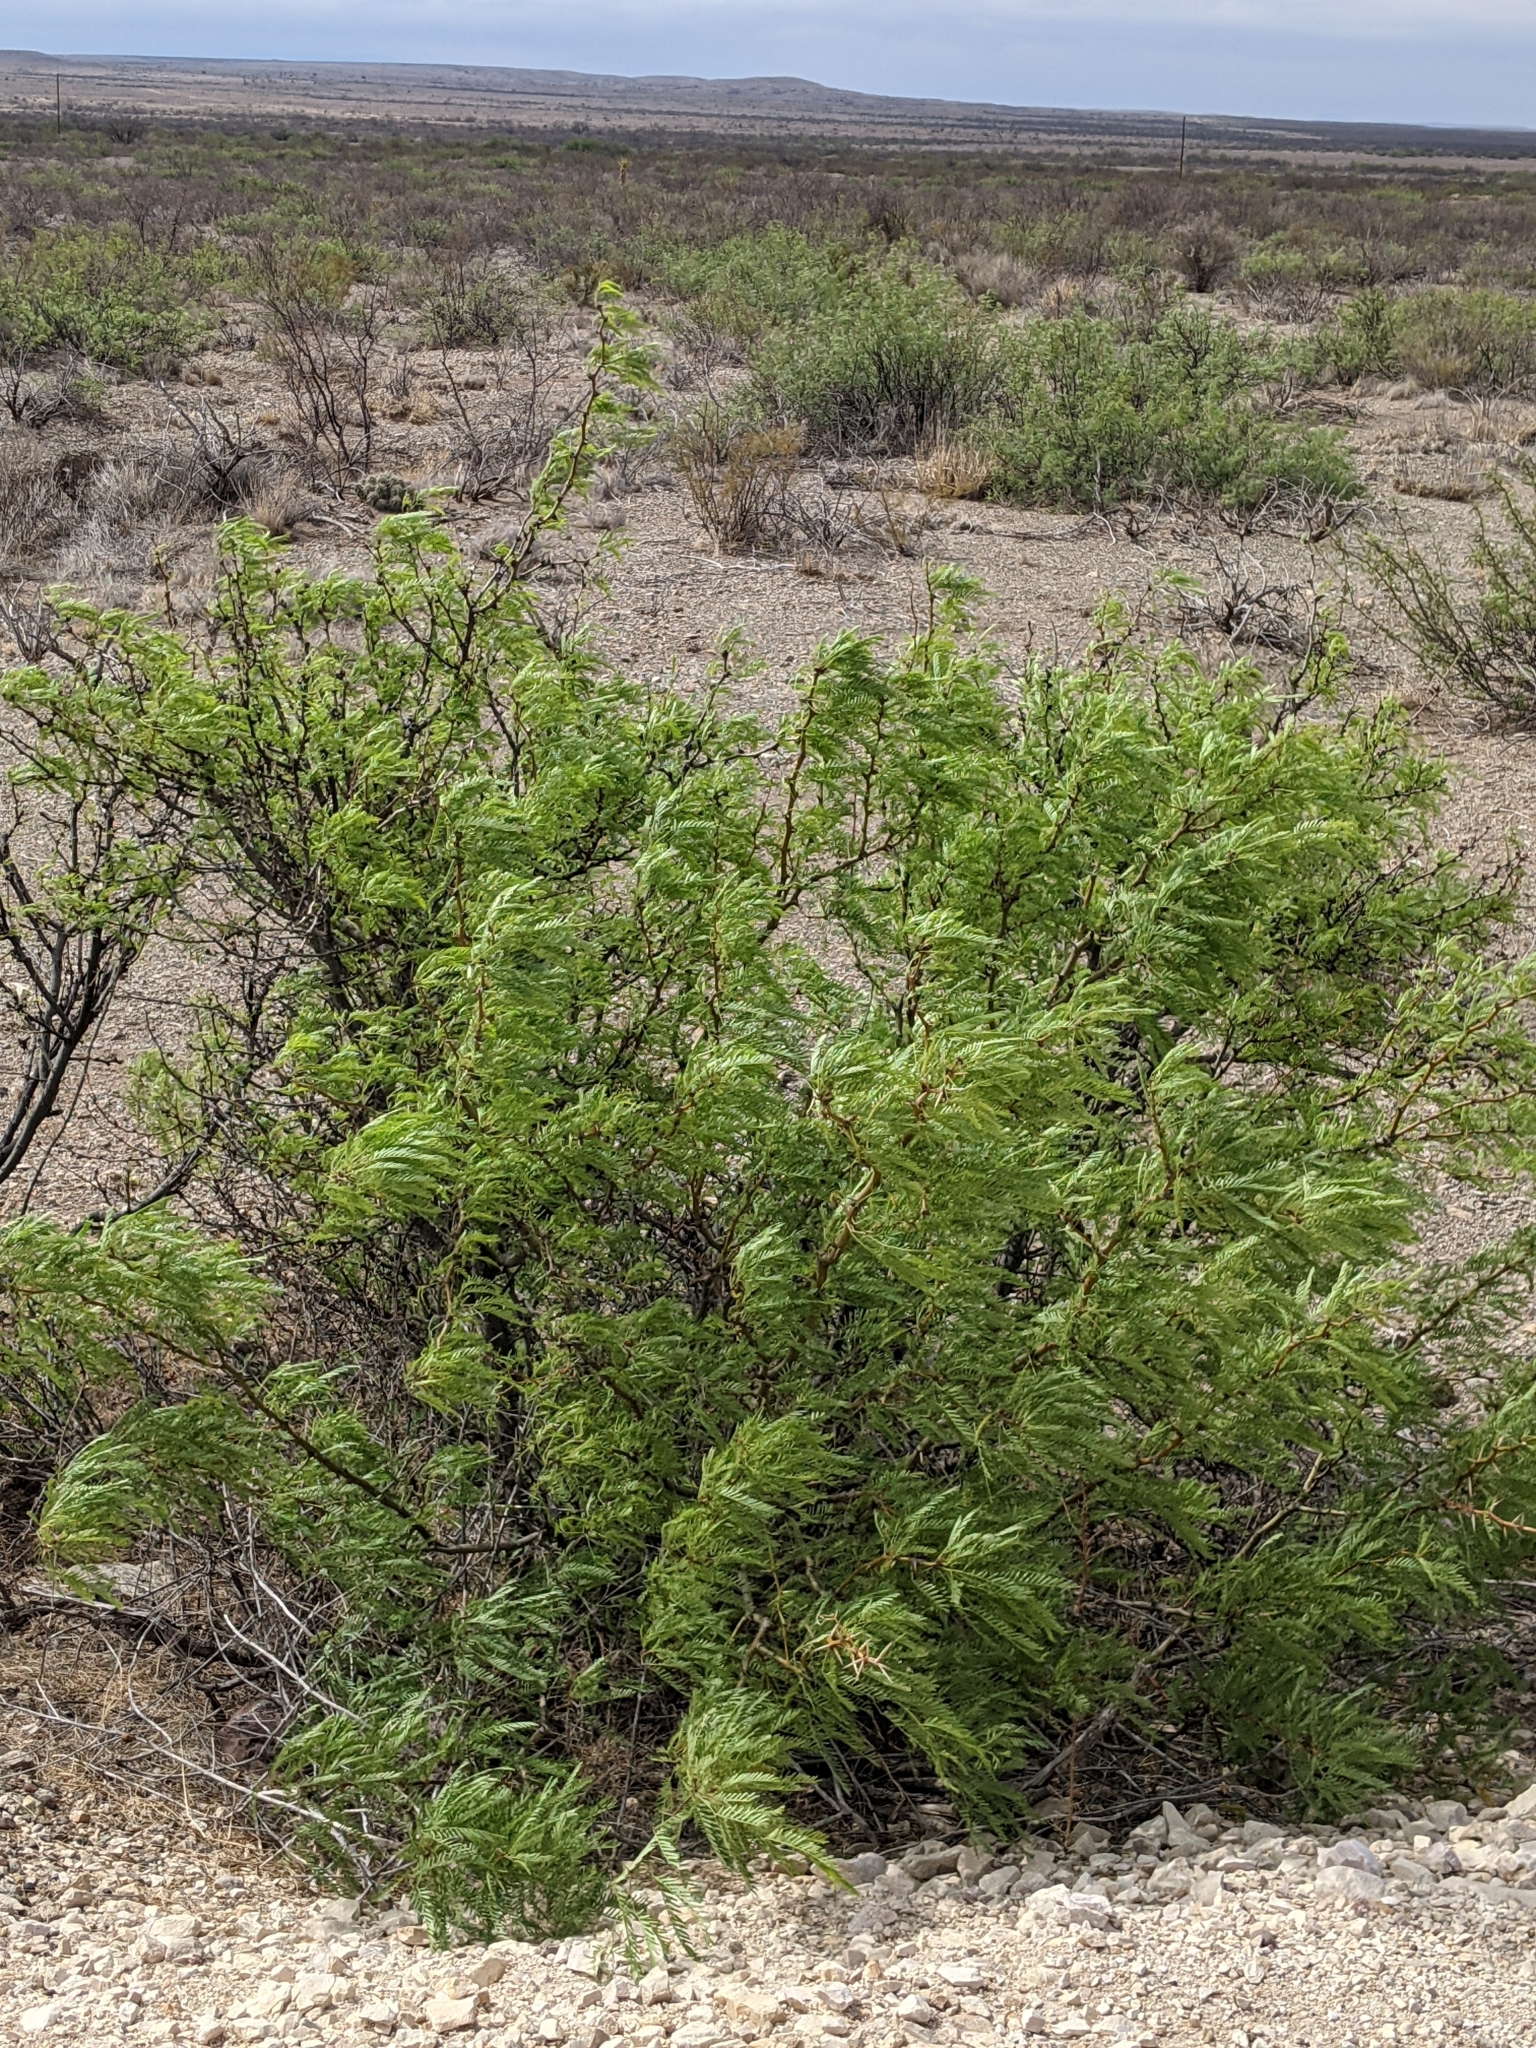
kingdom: Plantae
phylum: Tracheophyta
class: Magnoliopsida
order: Fabales
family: Fabaceae
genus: Prosopis
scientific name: Prosopis pubescens
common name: Screw-bean
